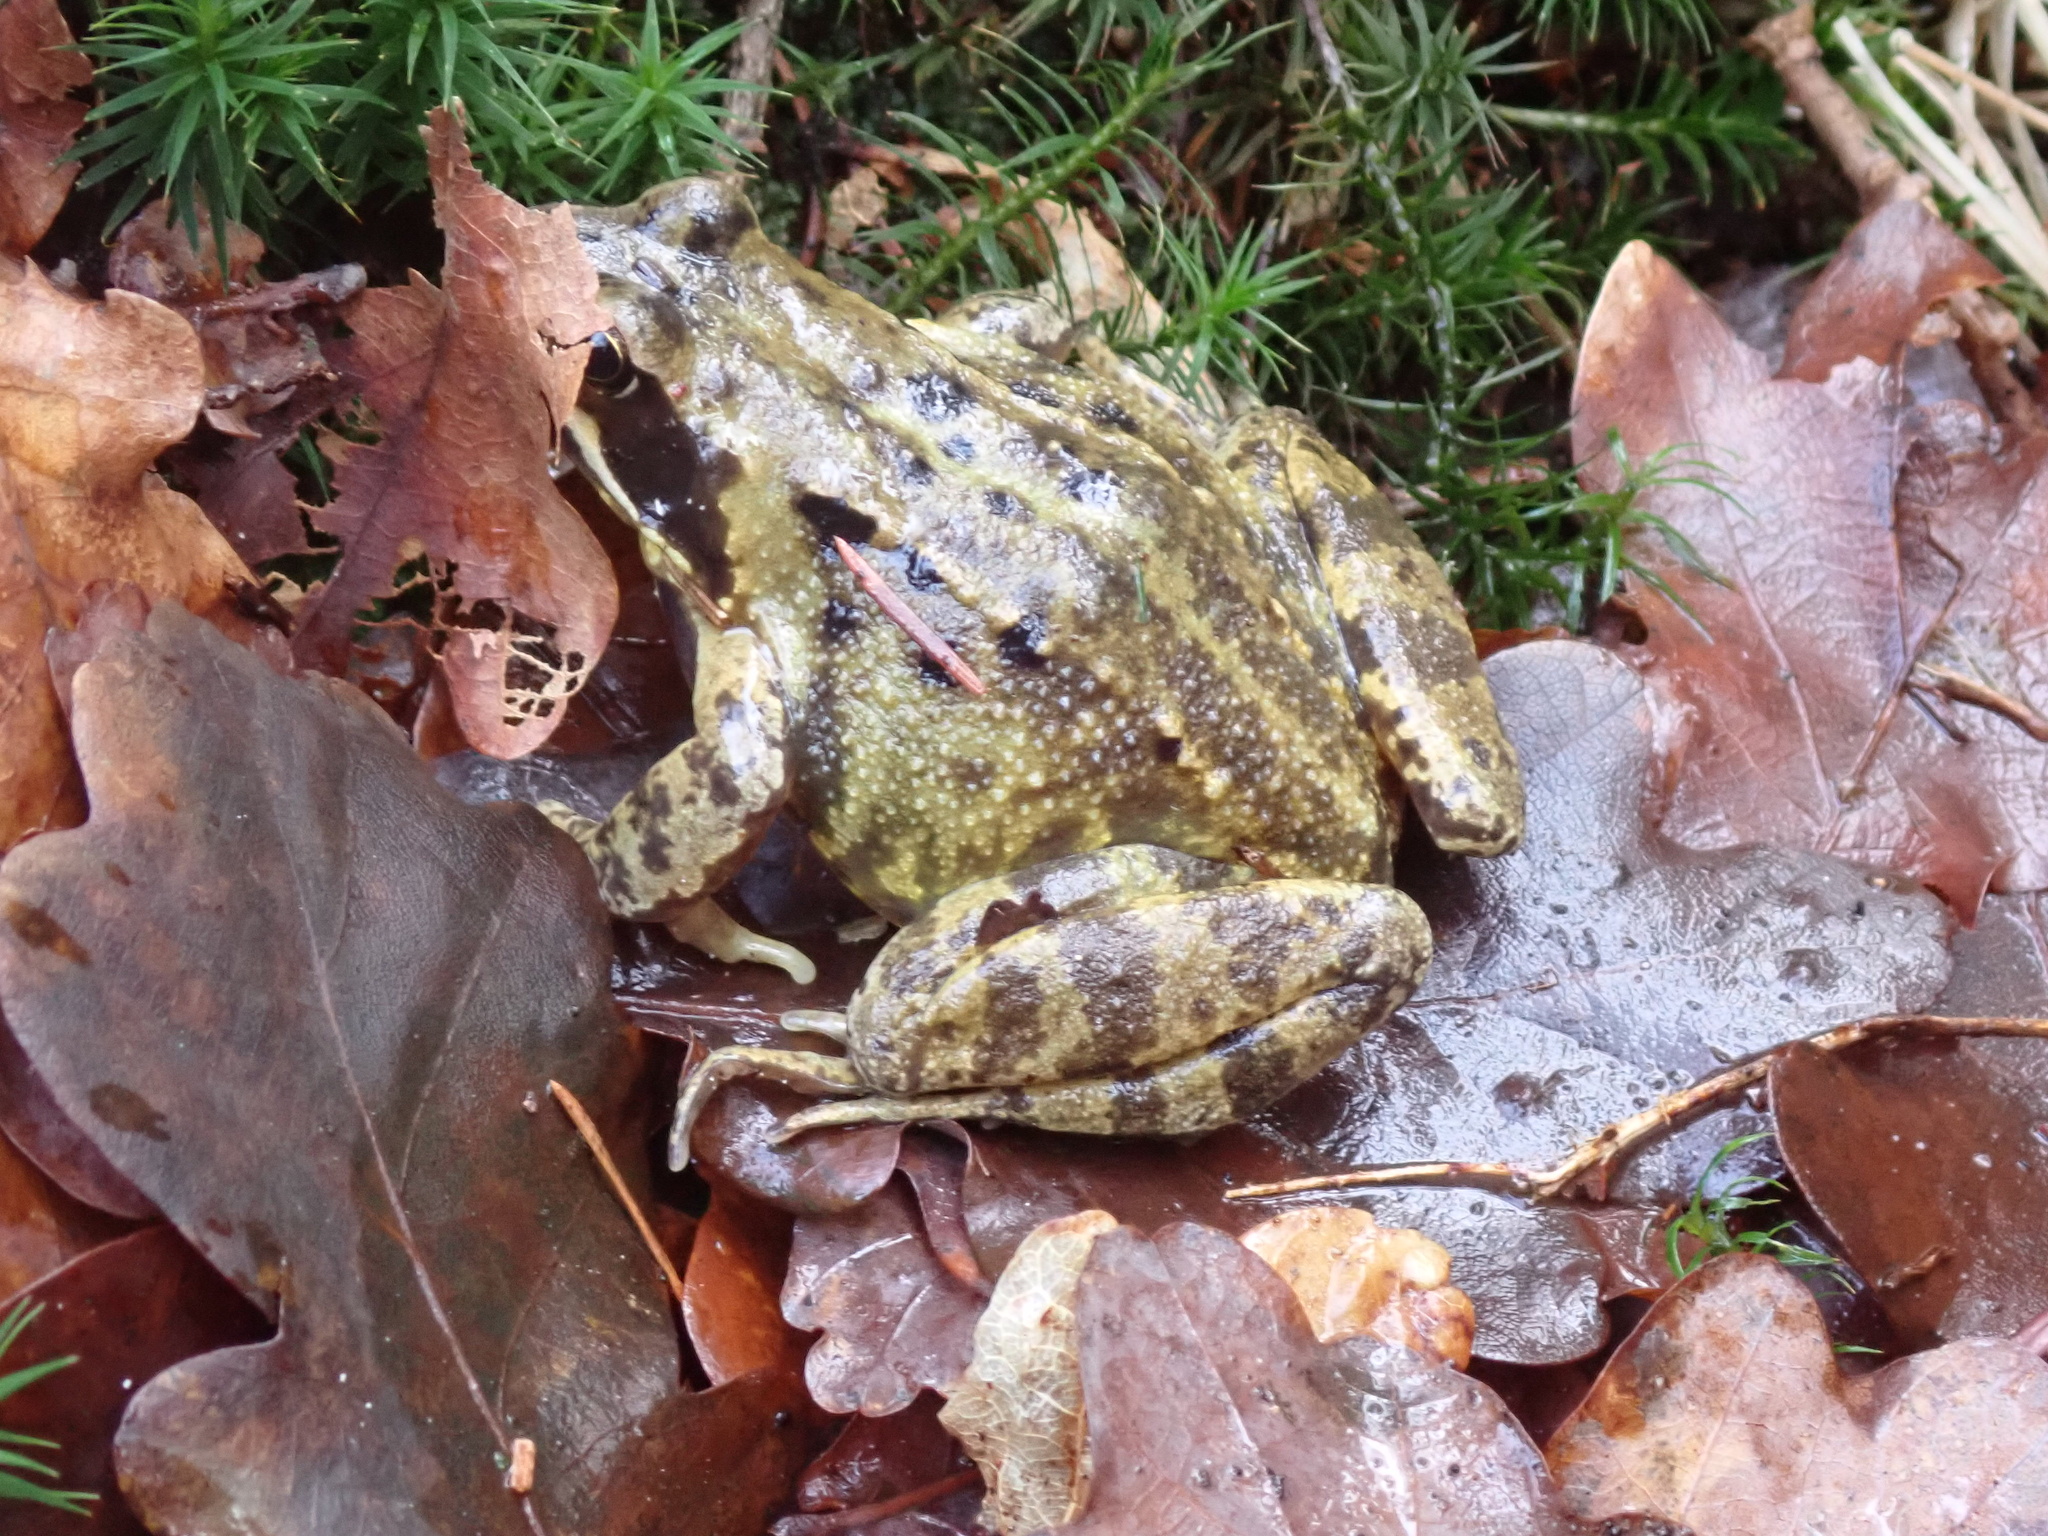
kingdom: Animalia
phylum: Chordata
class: Amphibia
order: Anura
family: Ranidae
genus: Rana
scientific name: Rana temporaria
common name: Common frog
